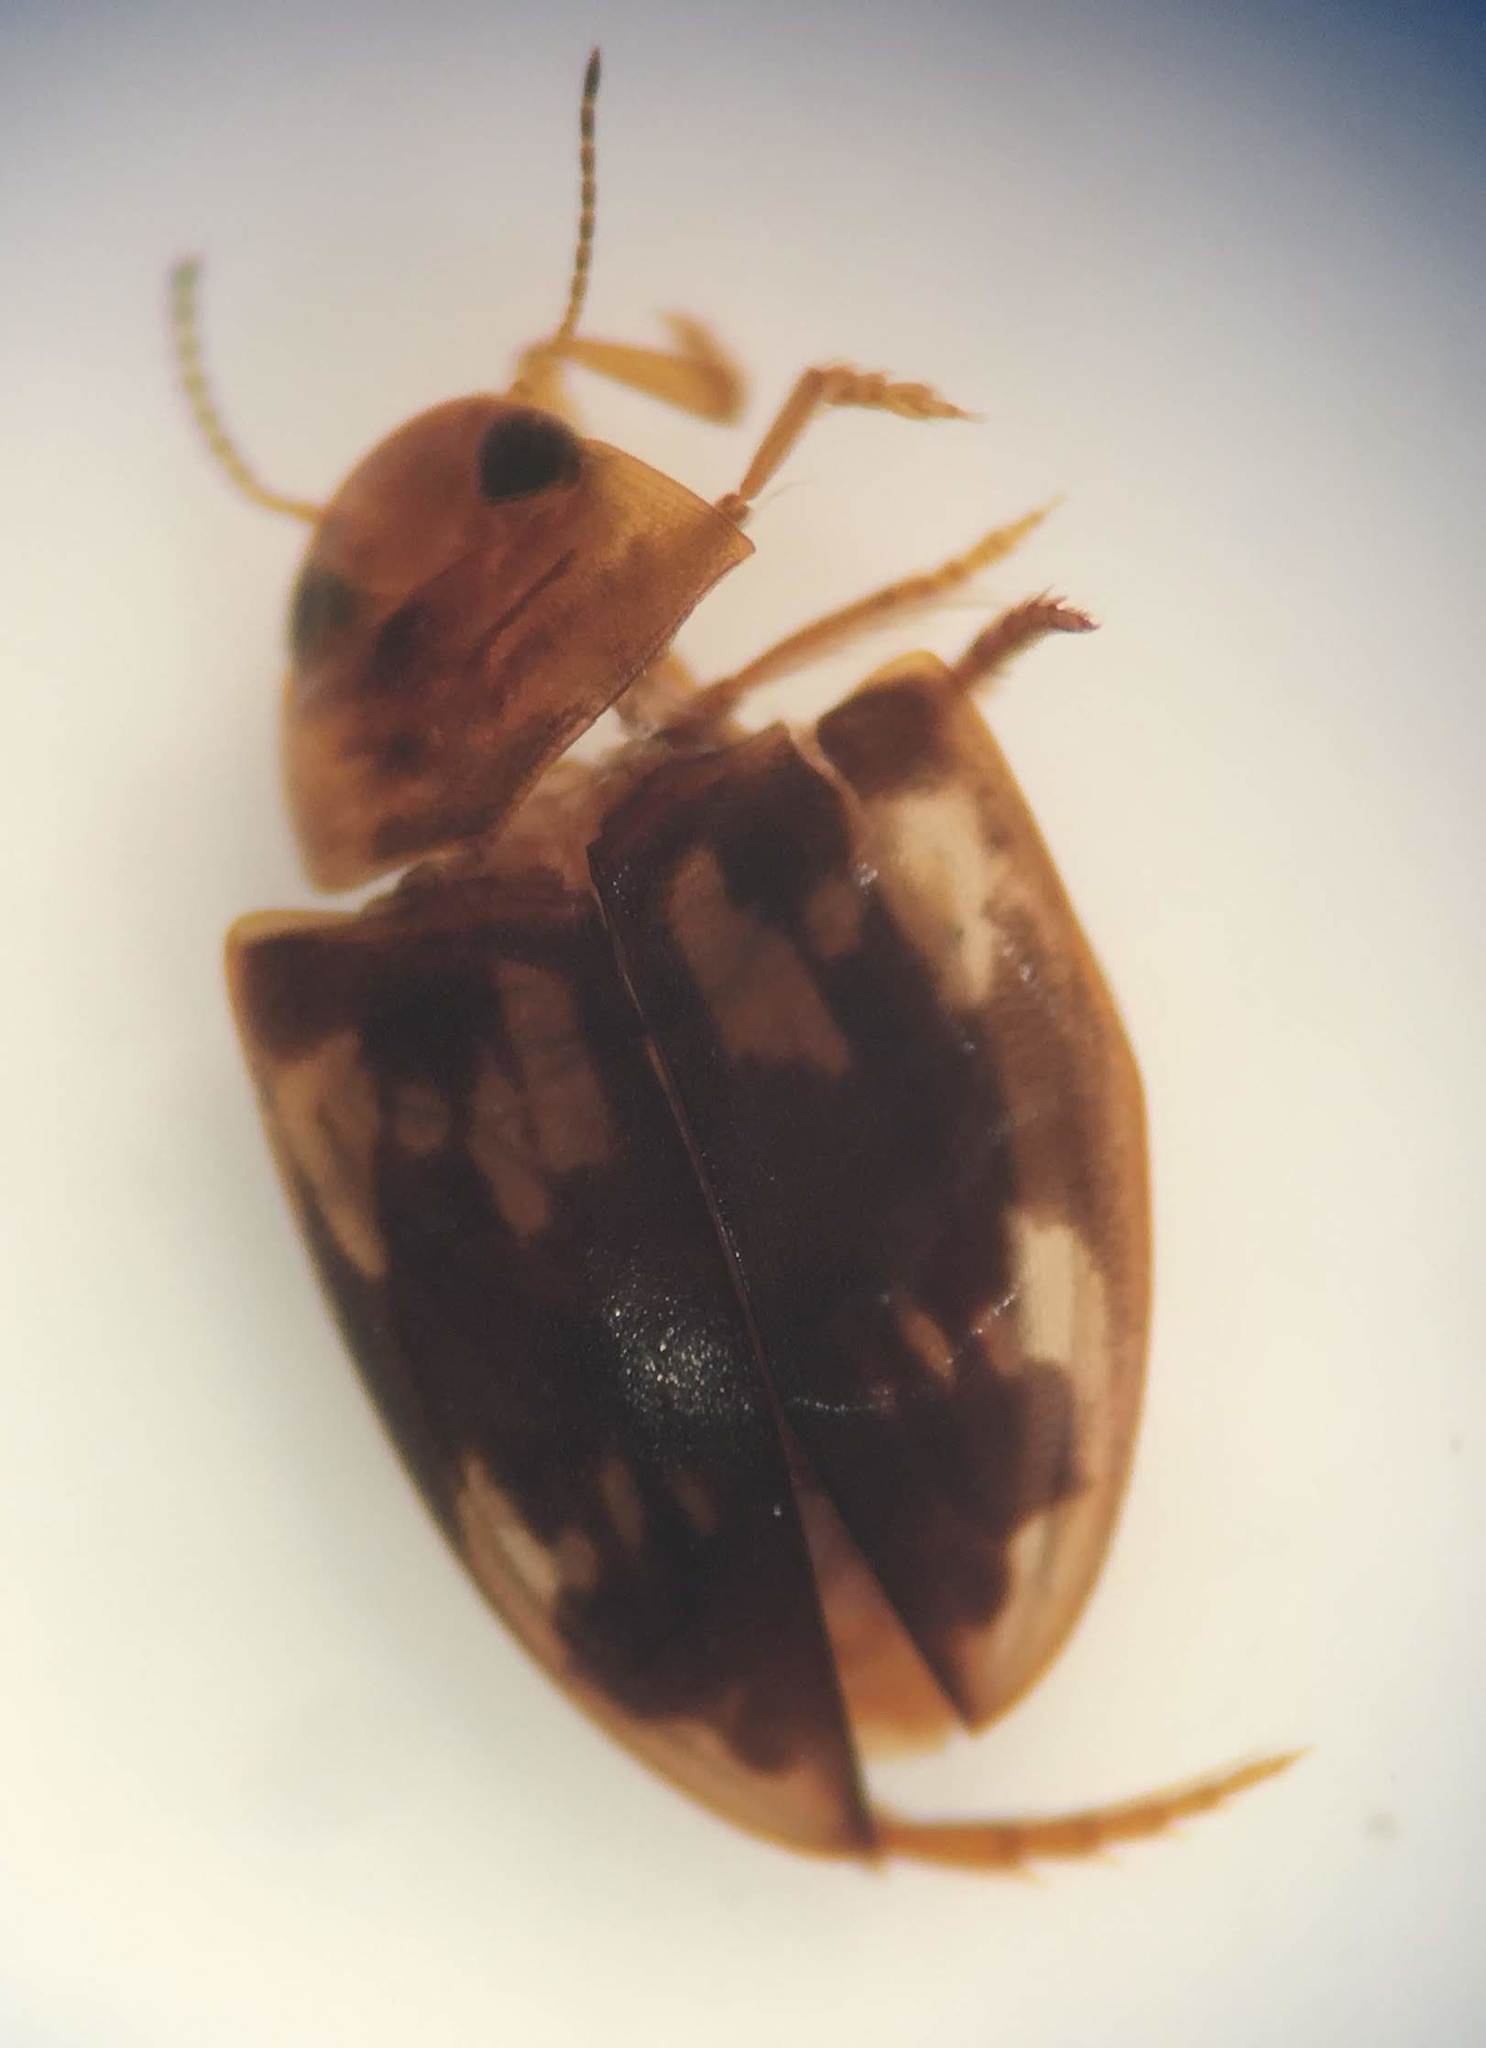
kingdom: Animalia
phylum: Arthropoda
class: Insecta
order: Coleoptera
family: Dytiscidae
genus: Neoporus
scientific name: Neoporus asidytus
